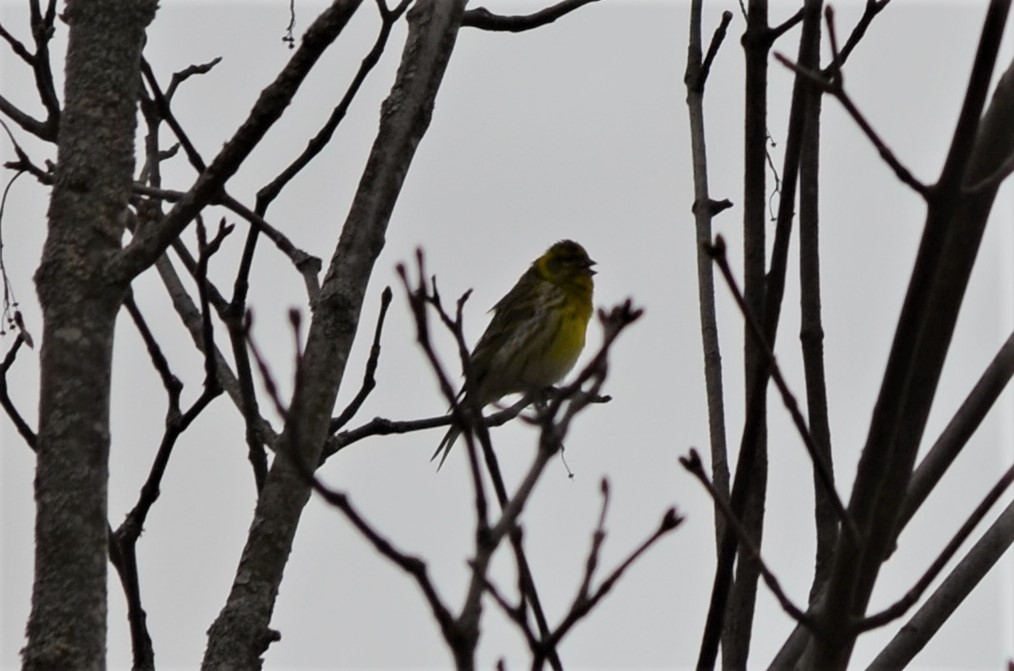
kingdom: Animalia
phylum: Chordata
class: Aves
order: Passeriformes
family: Fringillidae
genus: Serinus
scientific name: Serinus serinus
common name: European serin
